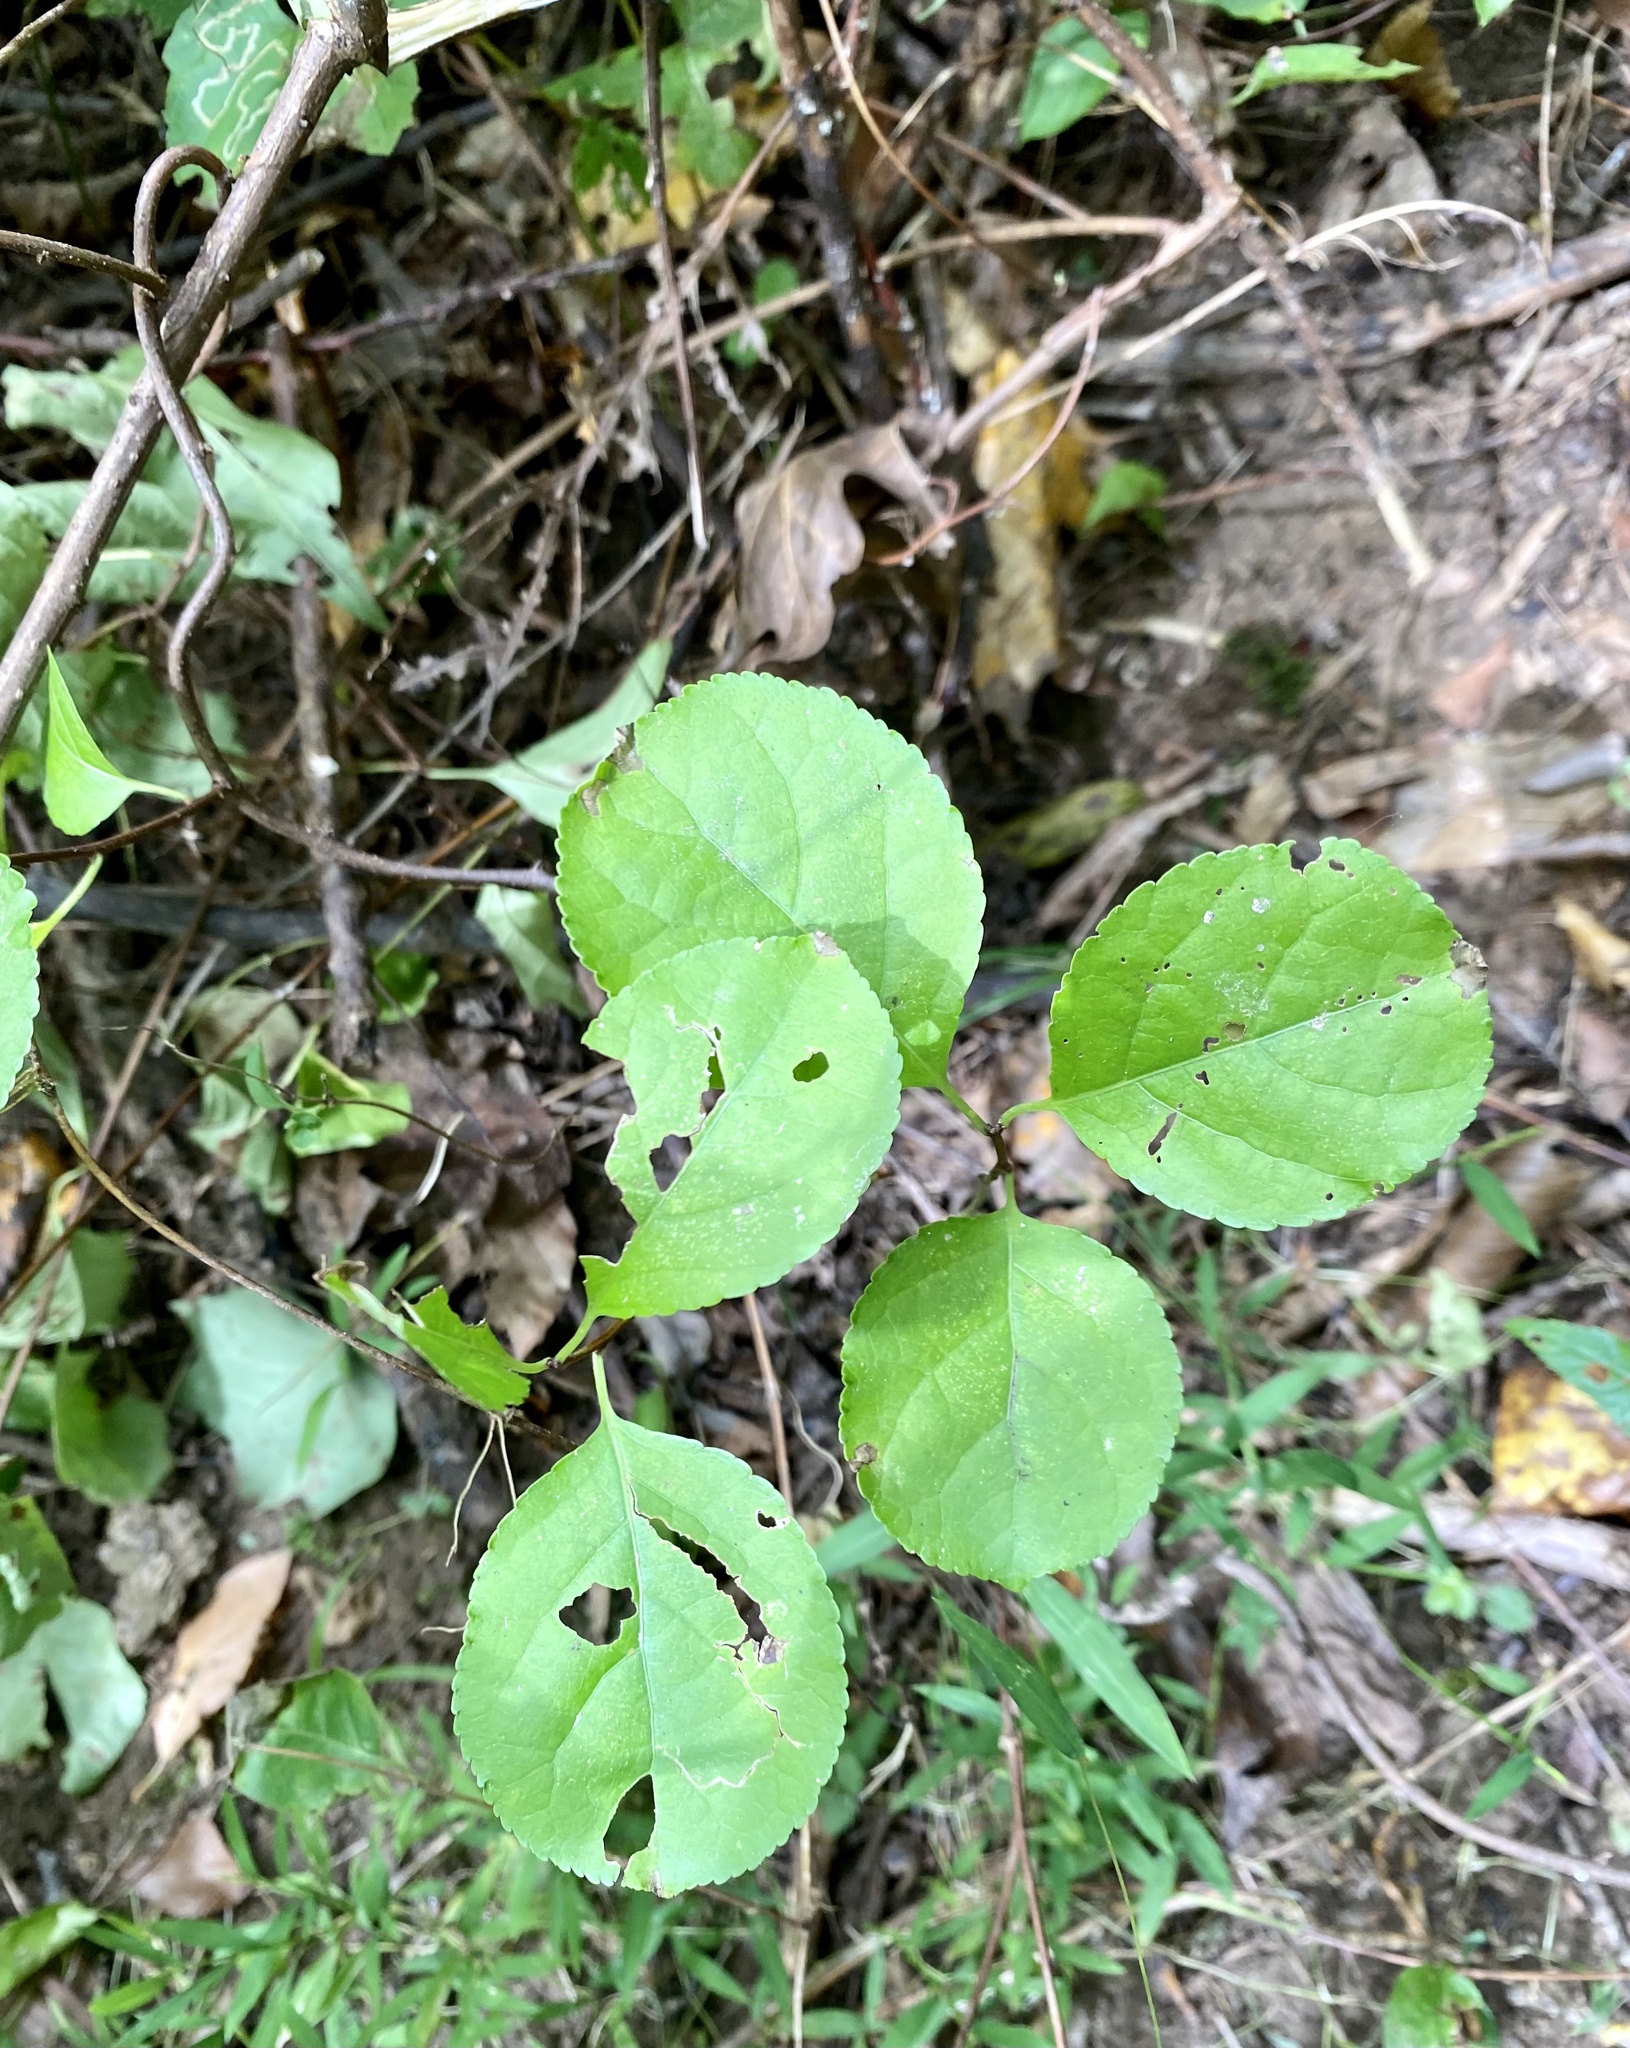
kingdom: Plantae
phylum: Tracheophyta
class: Magnoliopsida
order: Celastrales
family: Celastraceae
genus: Celastrus
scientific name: Celastrus orbiculatus
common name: Oriental bittersweet
